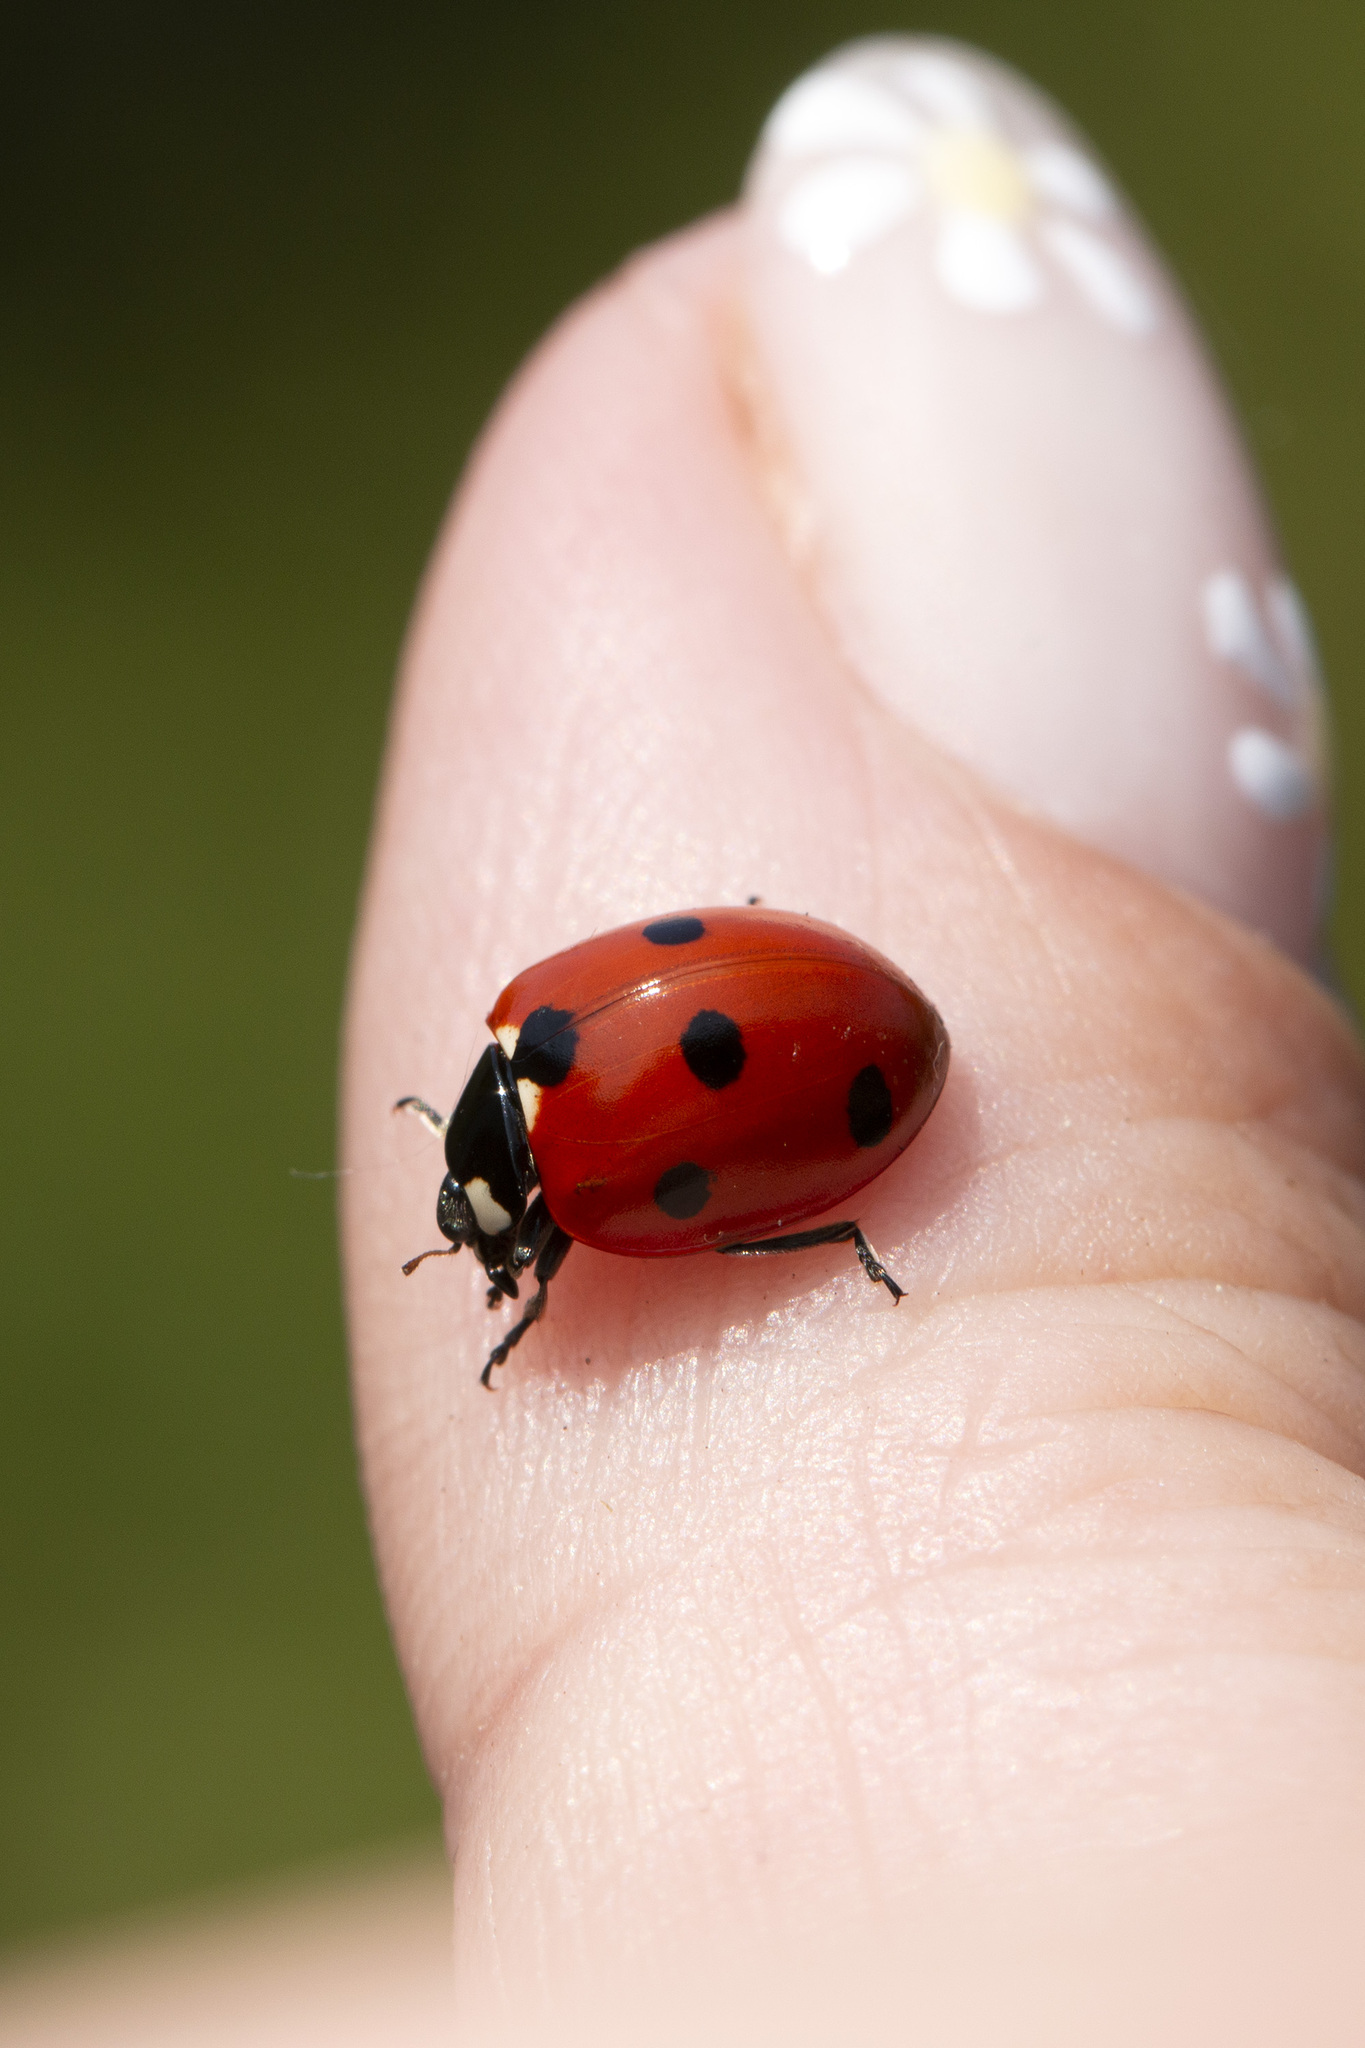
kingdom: Animalia
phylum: Arthropoda
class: Insecta
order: Coleoptera
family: Coccinellidae
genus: Coccinella
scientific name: Coccinella septempunctata
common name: Sevenspotted lady beetle
